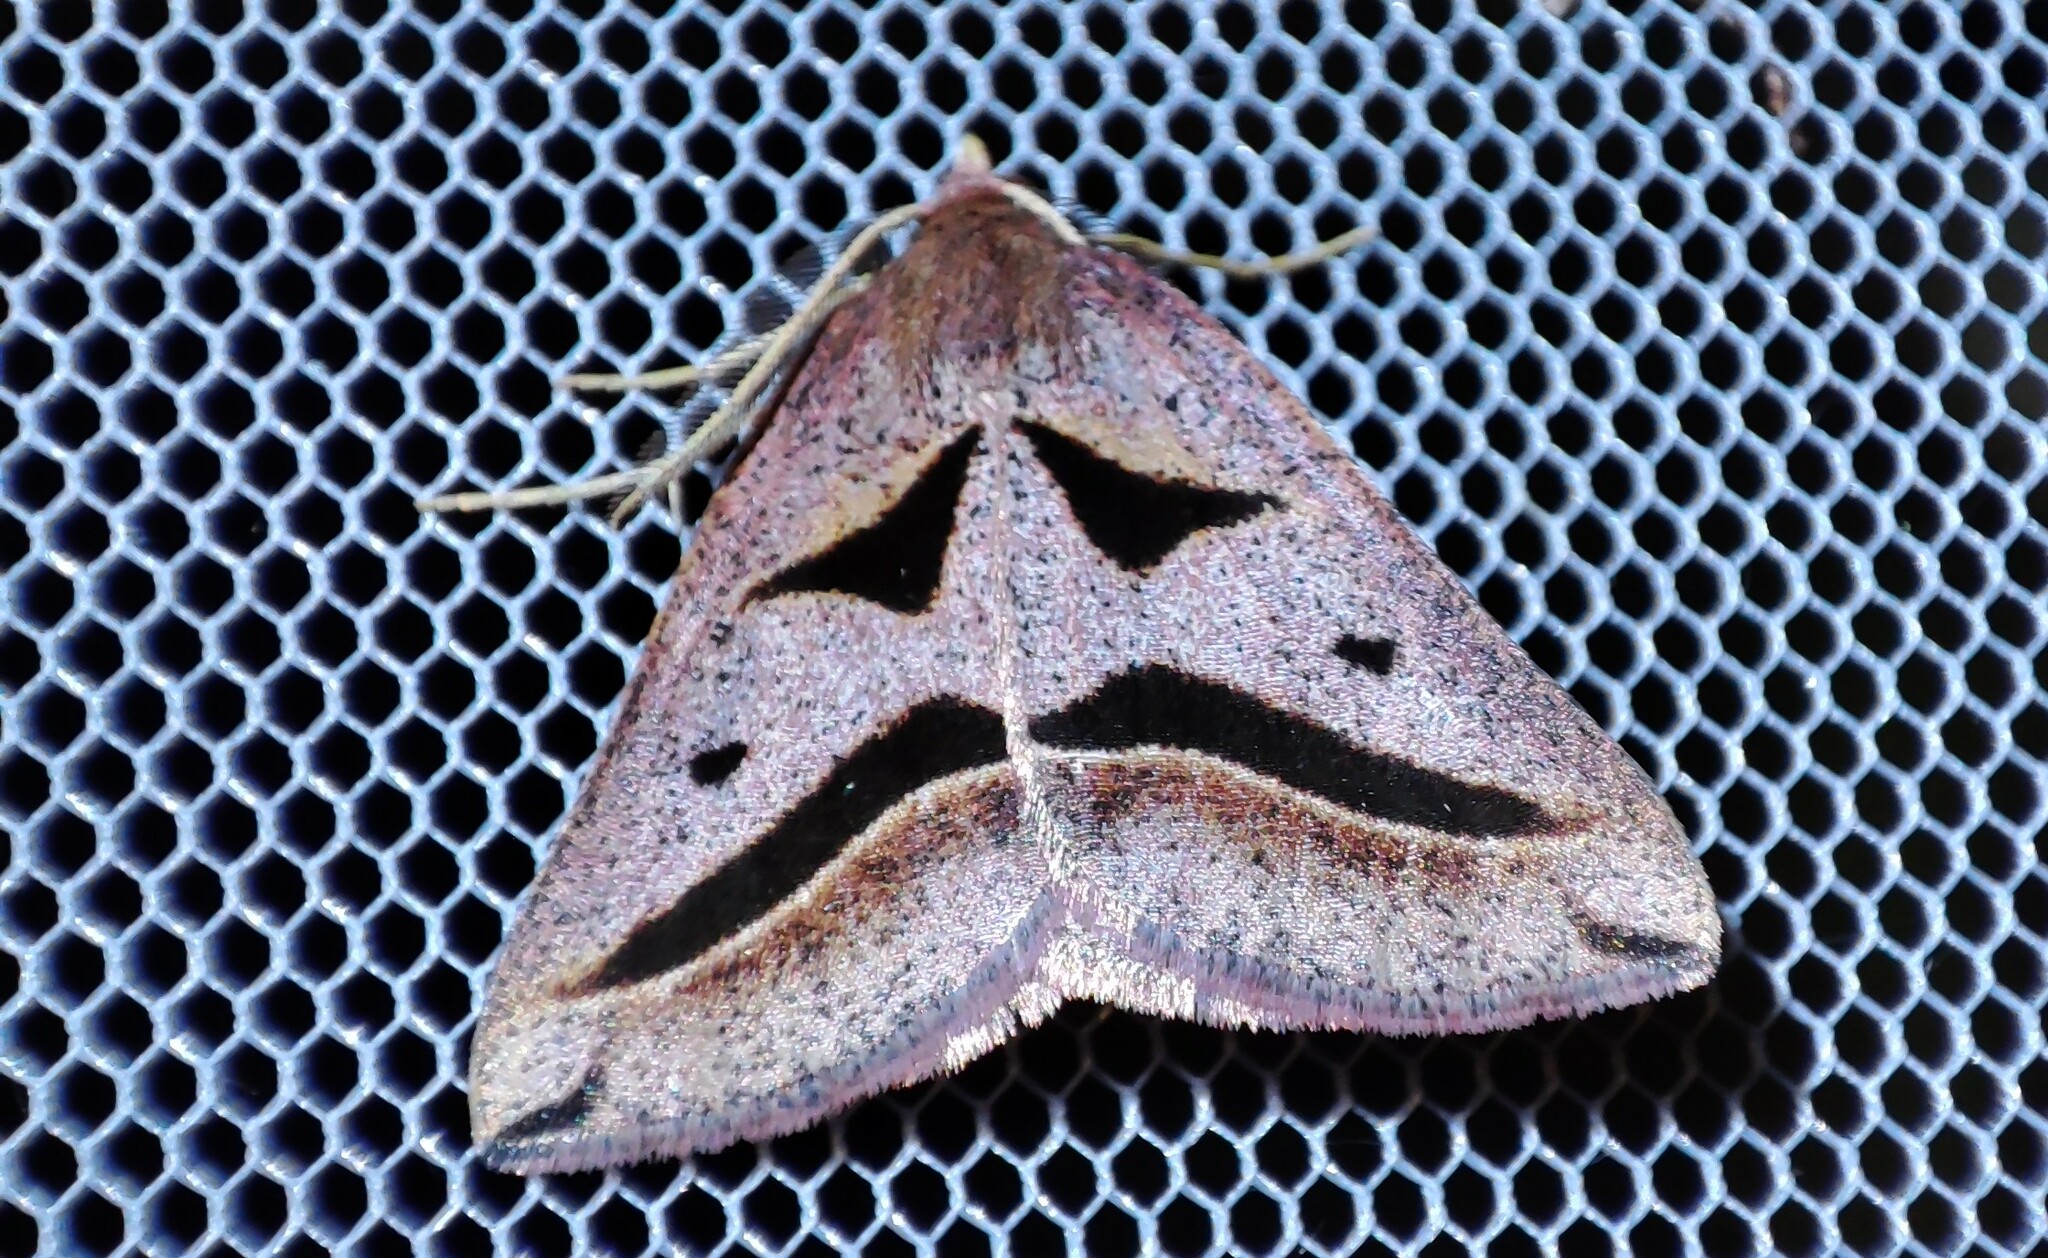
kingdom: Animalia
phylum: Arthropoda
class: Insecta
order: Lepidoptera
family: Geometridae
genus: Pseudomaenas
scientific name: Pseudomaenas anguinata
